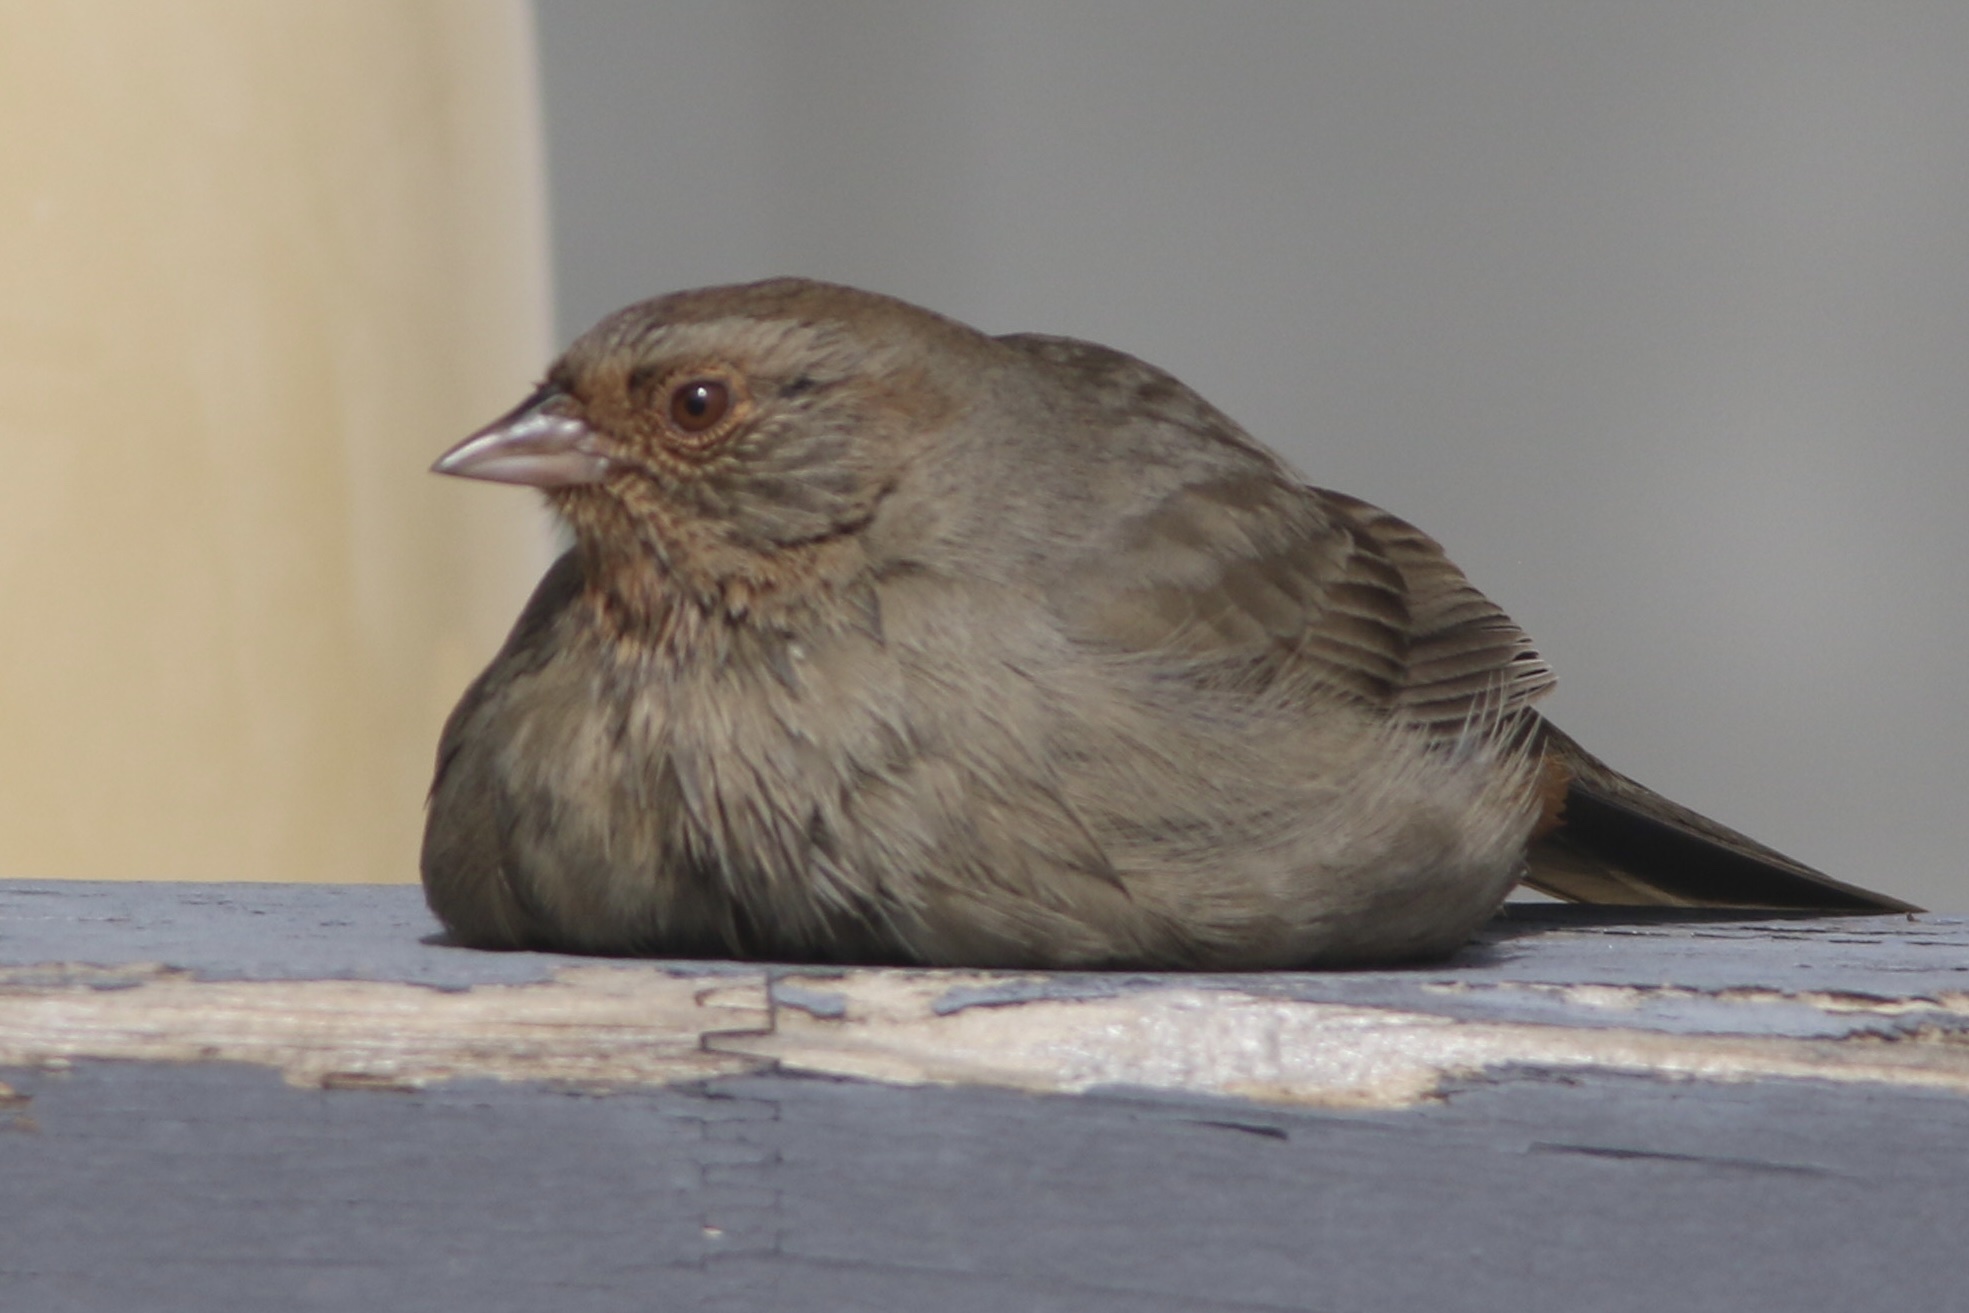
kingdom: Animalia
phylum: Chordata
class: Aves
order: Passeriformes
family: Passerellidae
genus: Melozone
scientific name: Melozone crissalis
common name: California towhee
